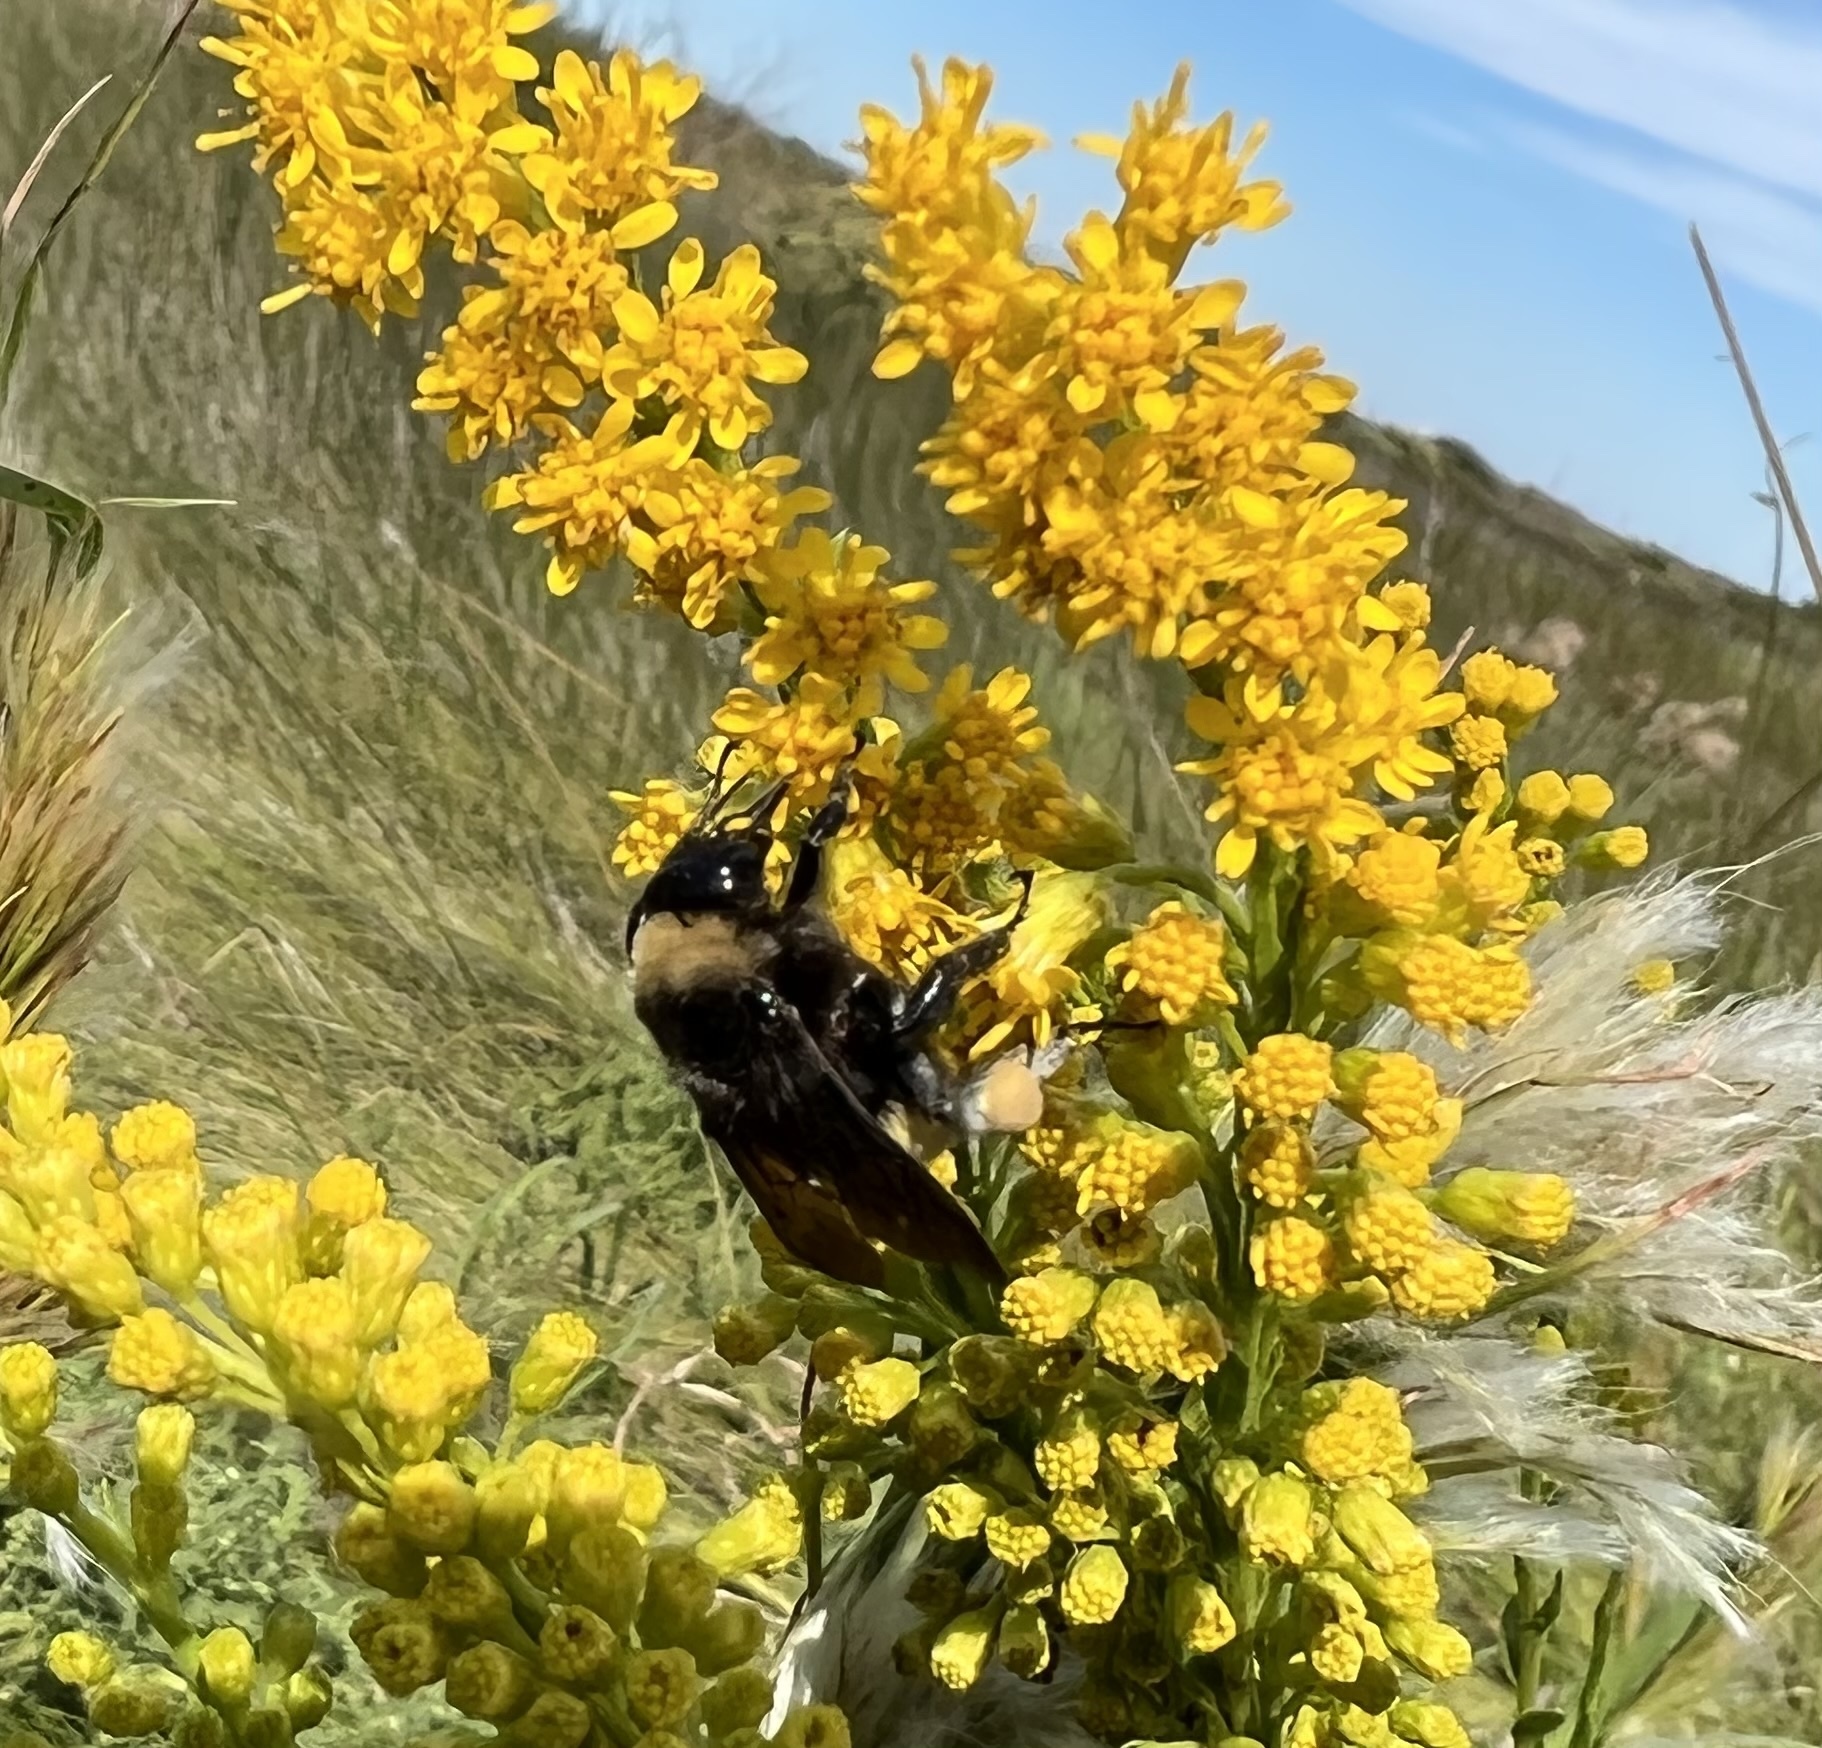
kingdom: Animalia
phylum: Arthropoda
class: Insecta
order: Hymenoptera
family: Apidae
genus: Bombus
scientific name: Bombus pensylvanicus
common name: Bumble bee
